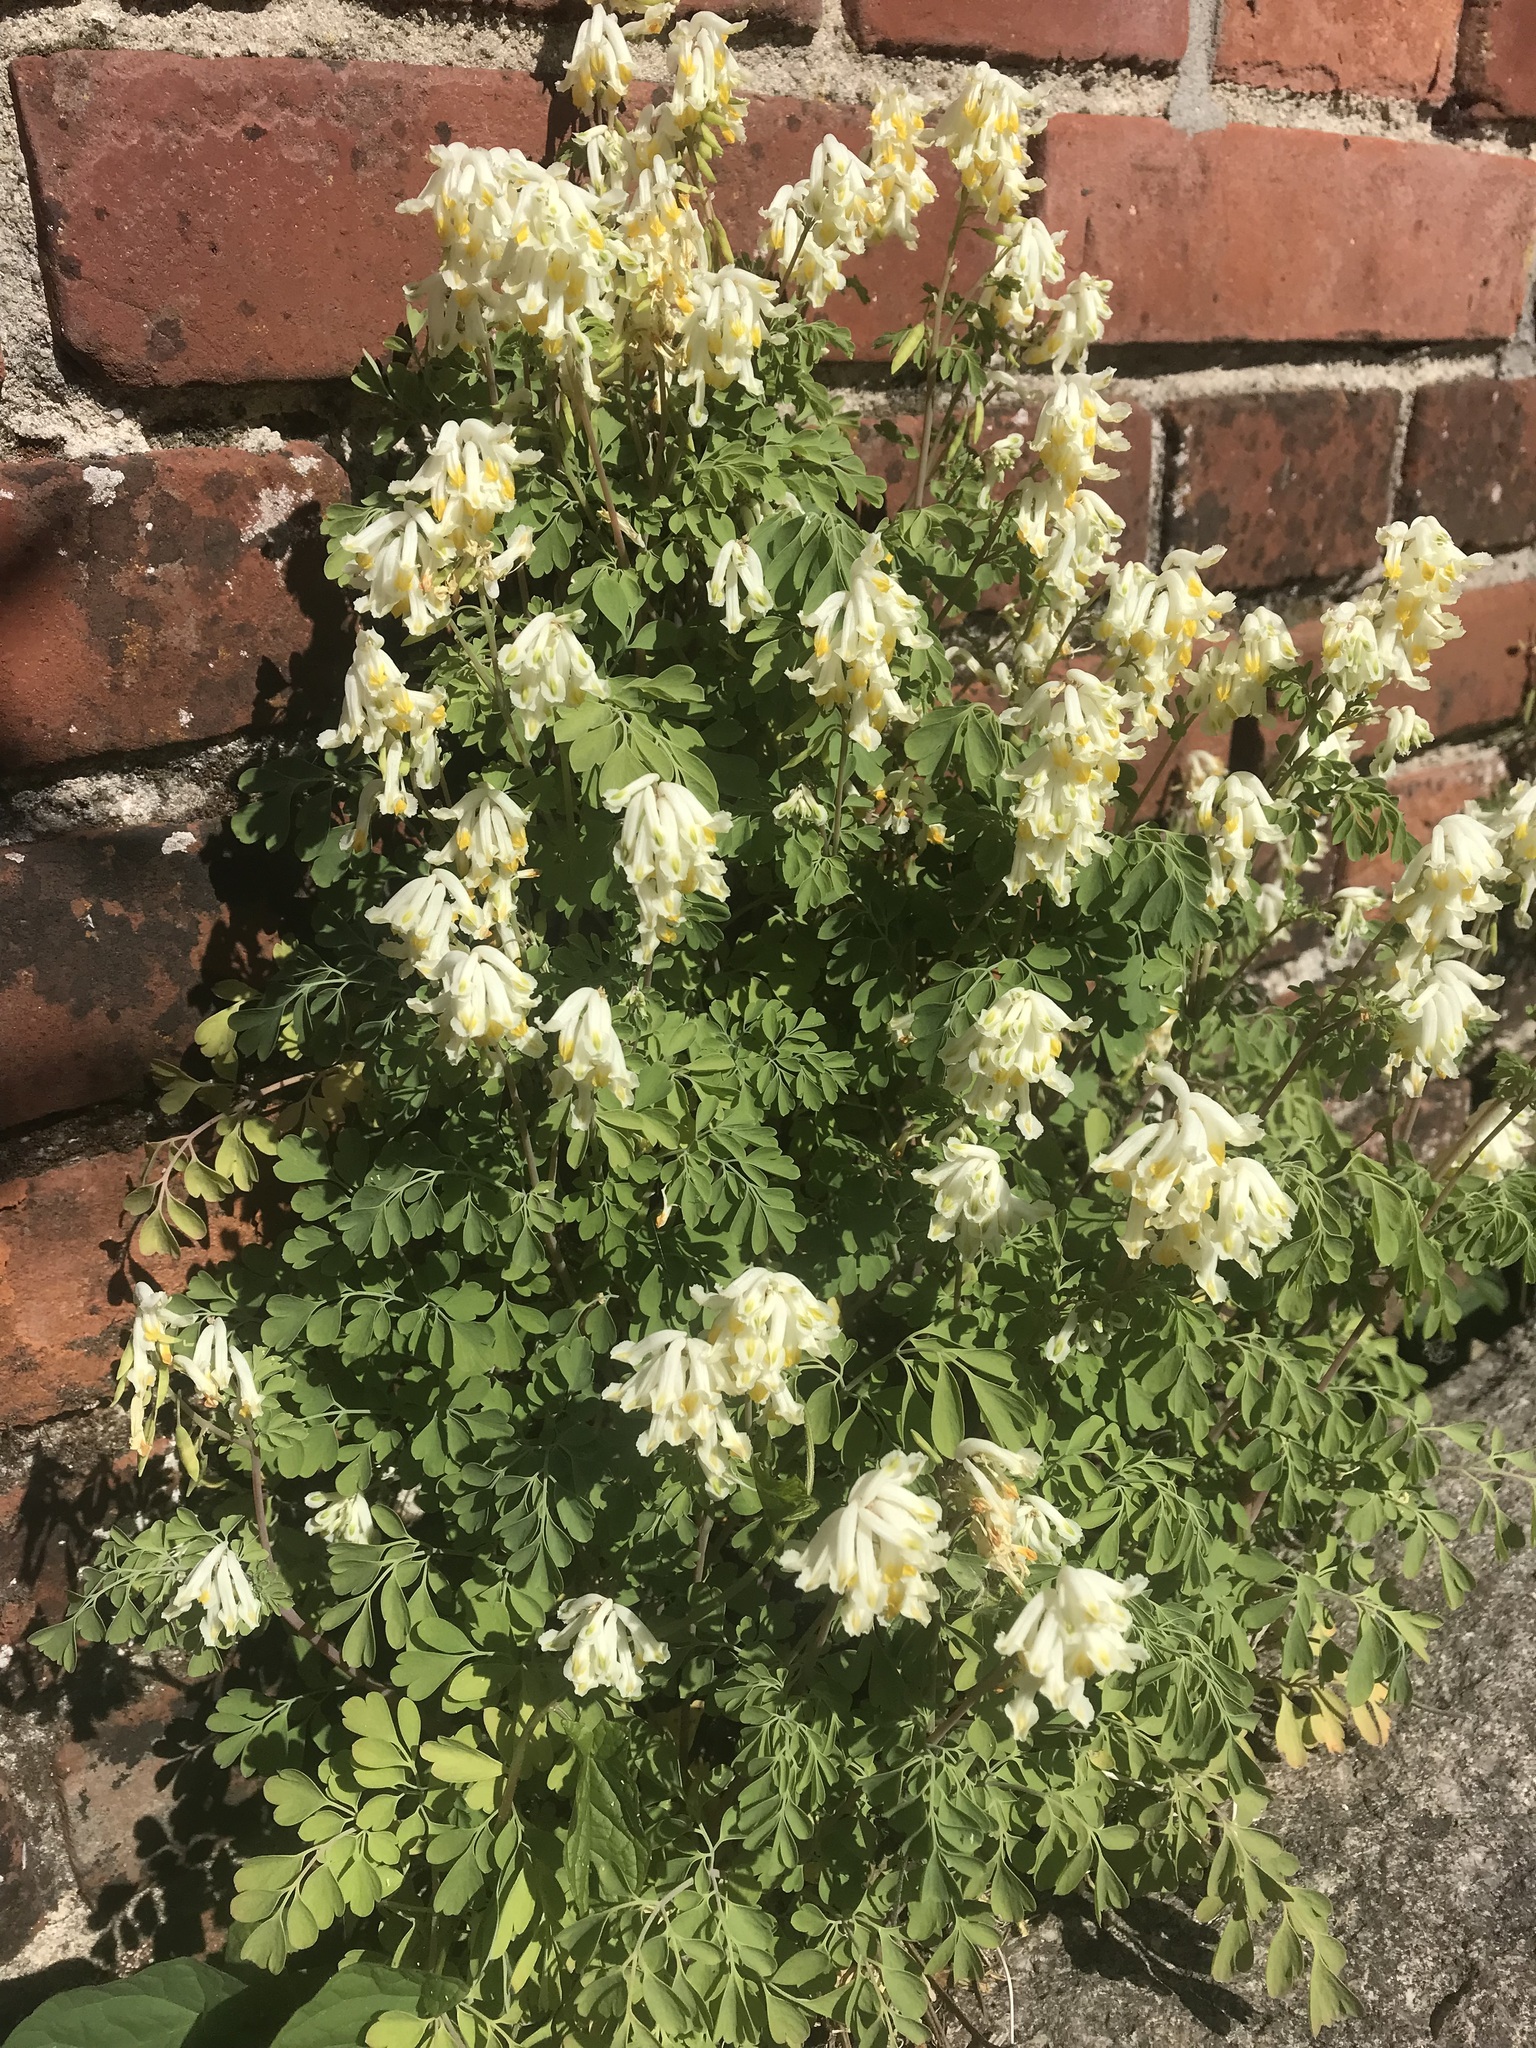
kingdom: Plantae
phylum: Tracheophyta
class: Magnoliopsida
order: Ranunculales
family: Papaveraceae
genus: Pseudofumaria
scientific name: Pseudofumaria alba
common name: Pale corydalis
